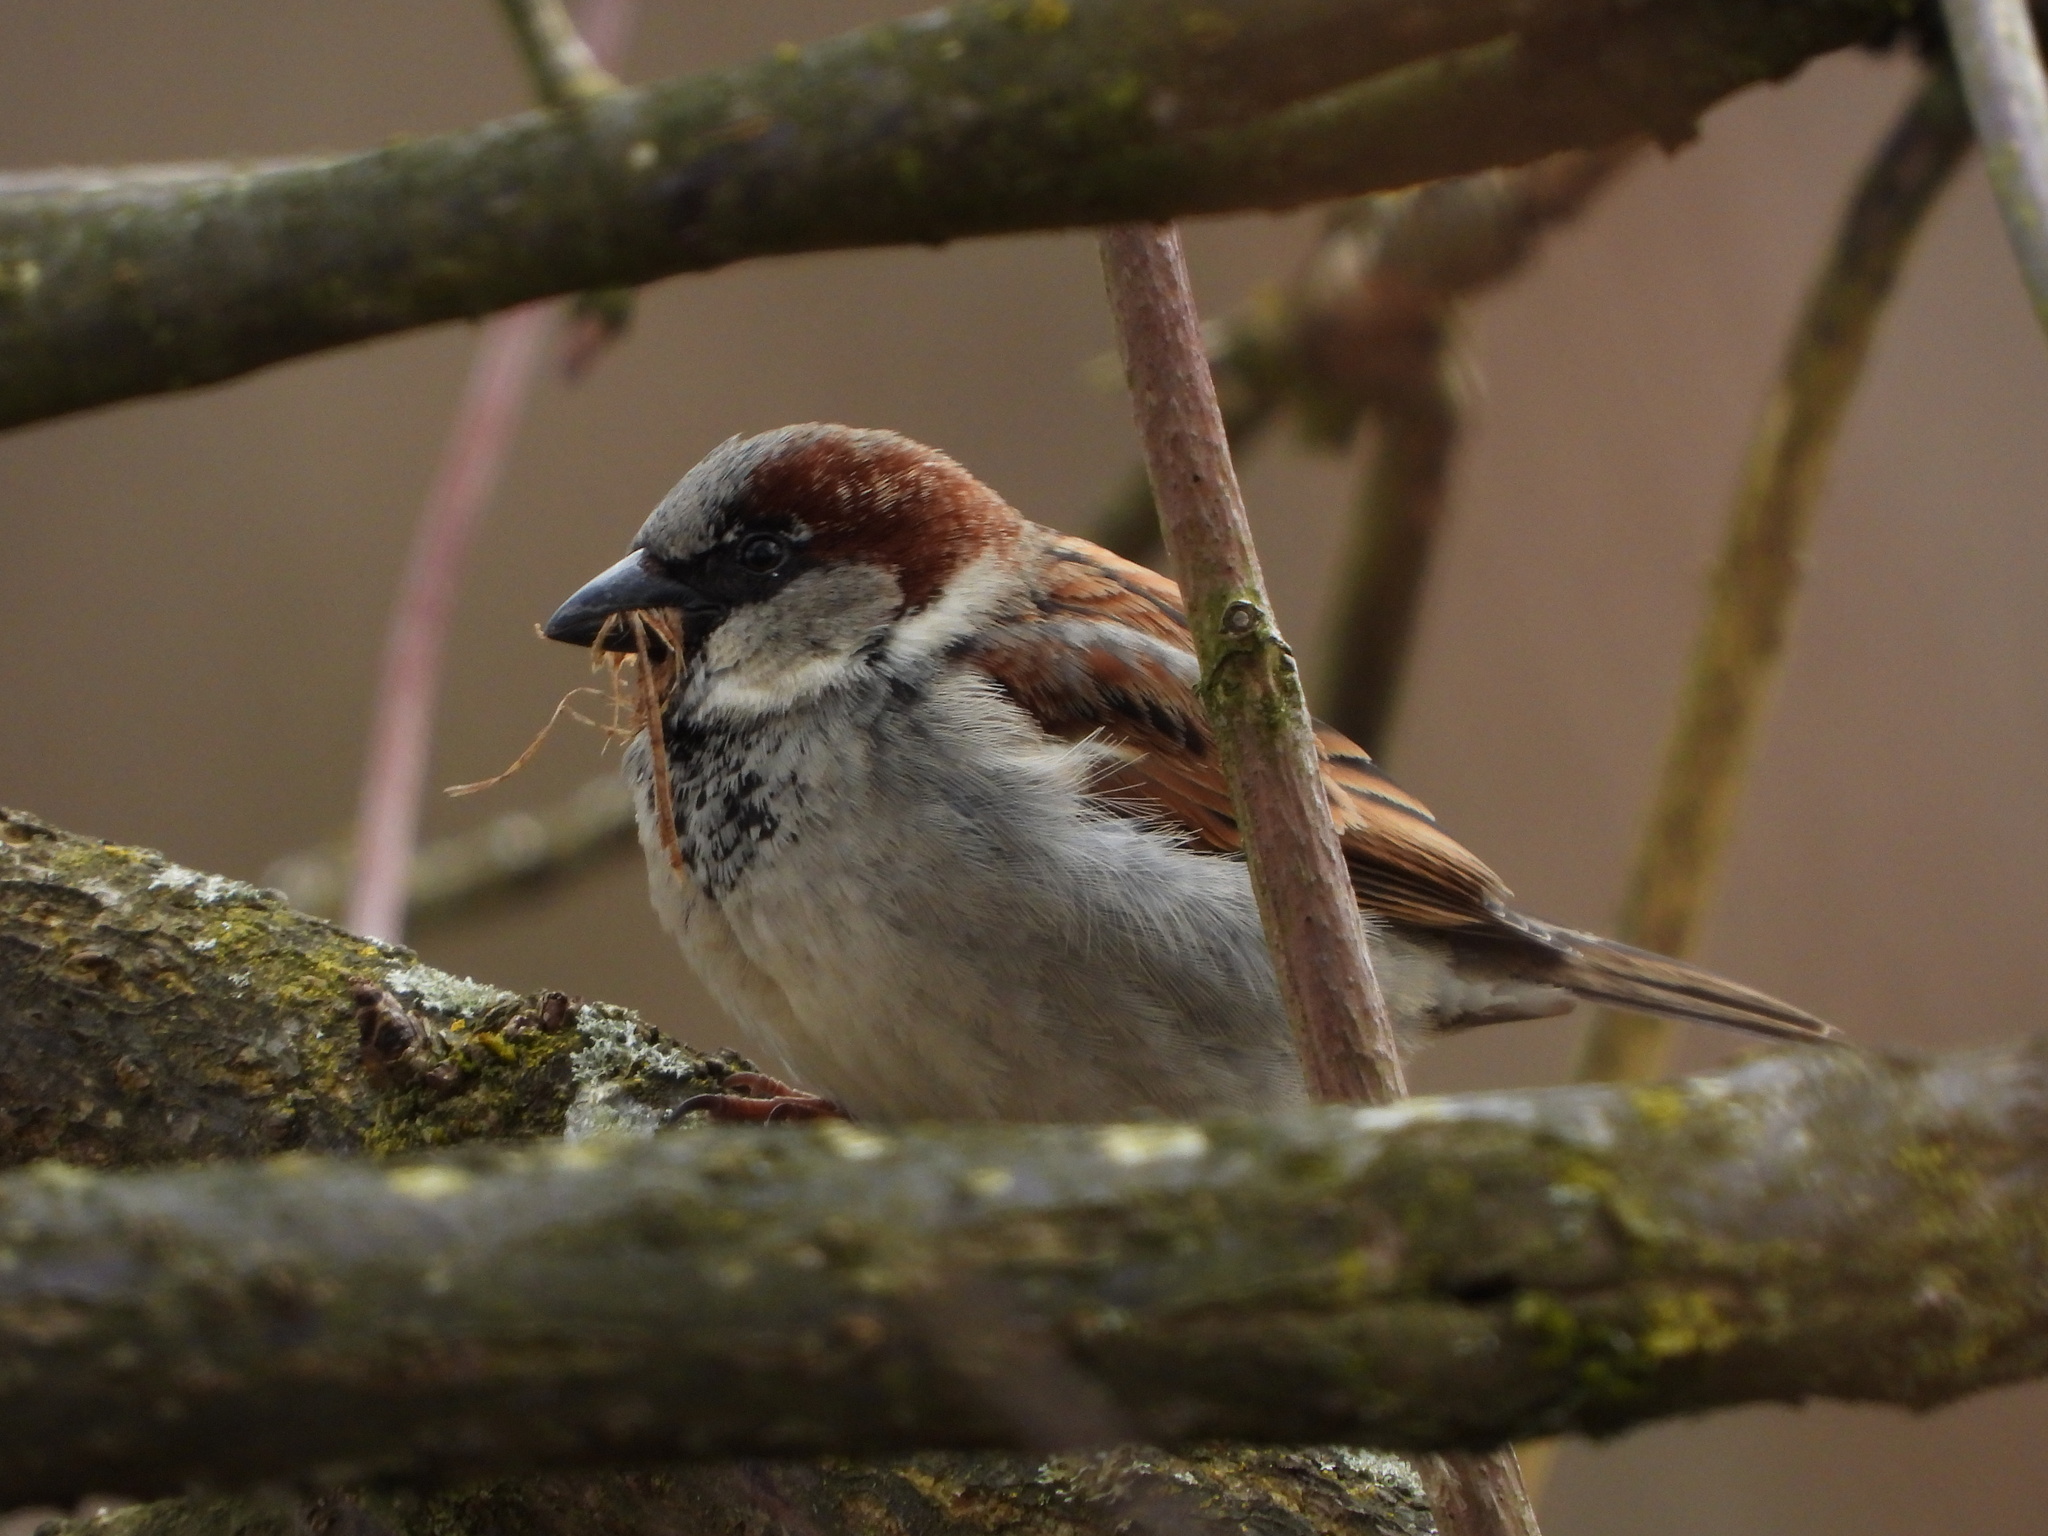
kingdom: Animalia
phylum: Chordata
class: Aves
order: Passeriformes
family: Passeridae
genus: Passer
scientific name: Passer domesticus
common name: House sparrow
